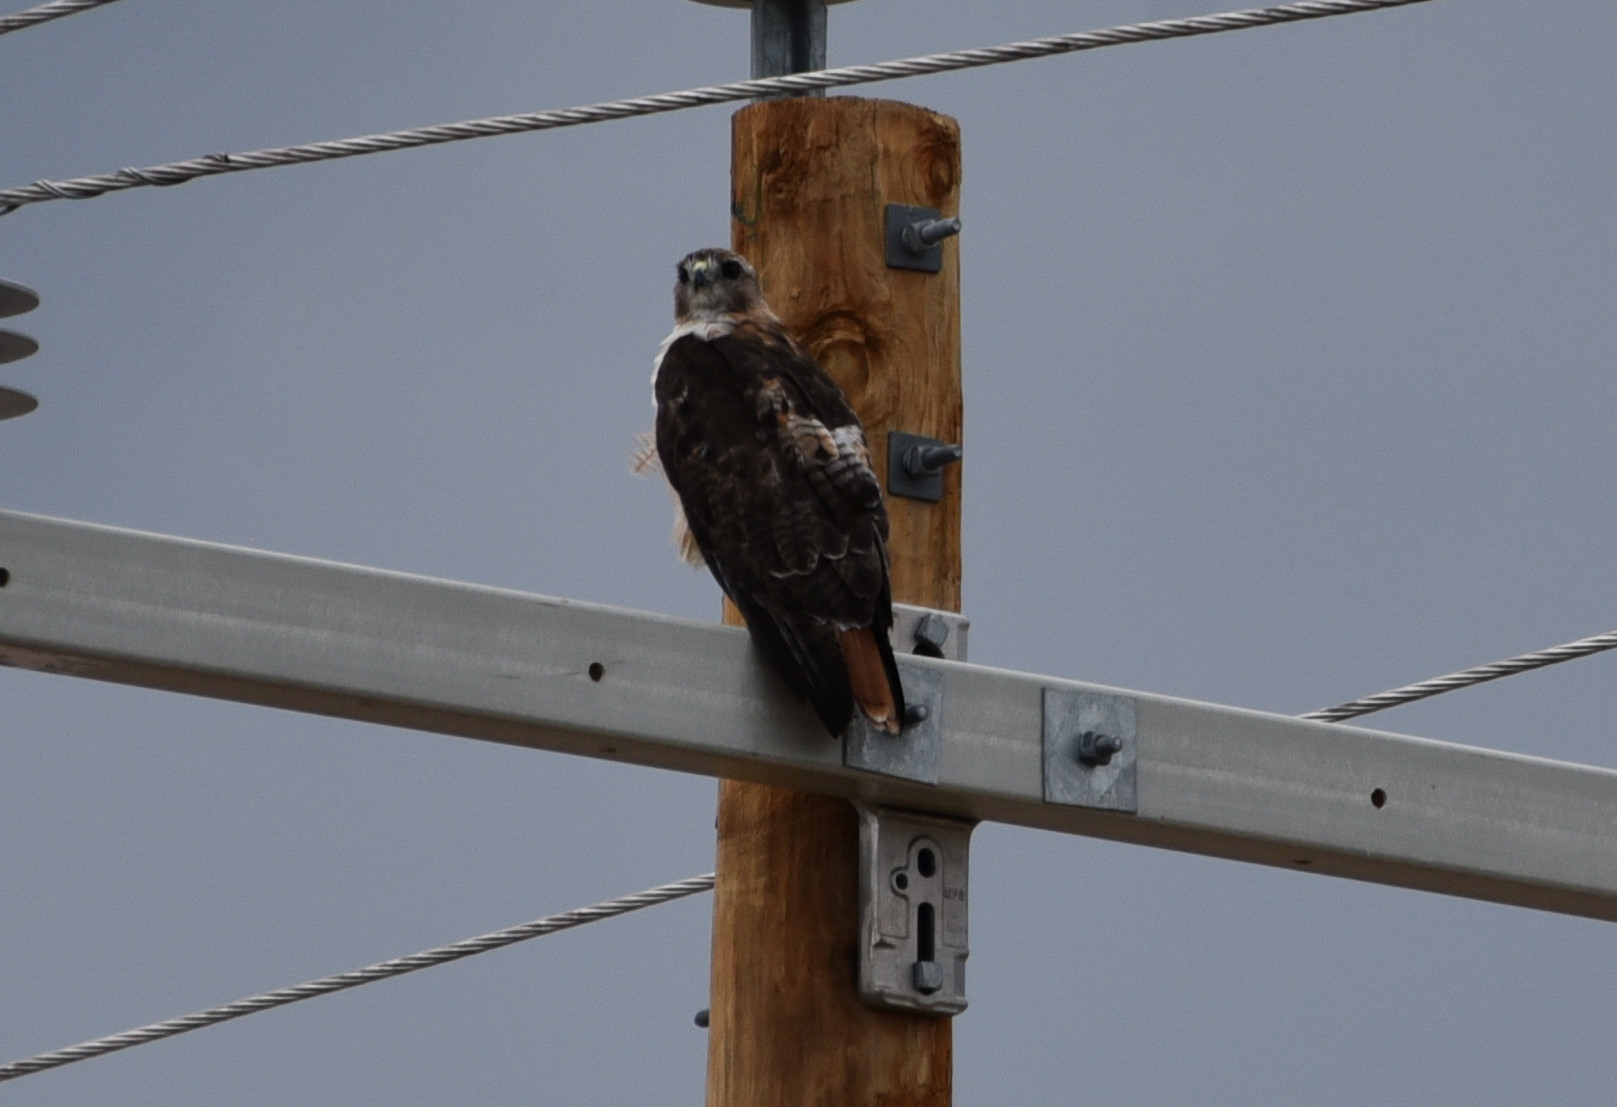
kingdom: Animalia
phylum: Chordata
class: Aves
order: Accipitriformes
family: Accipitridae
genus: Buteo
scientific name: Buteo jamaicensis
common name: Red-tailed hawk
